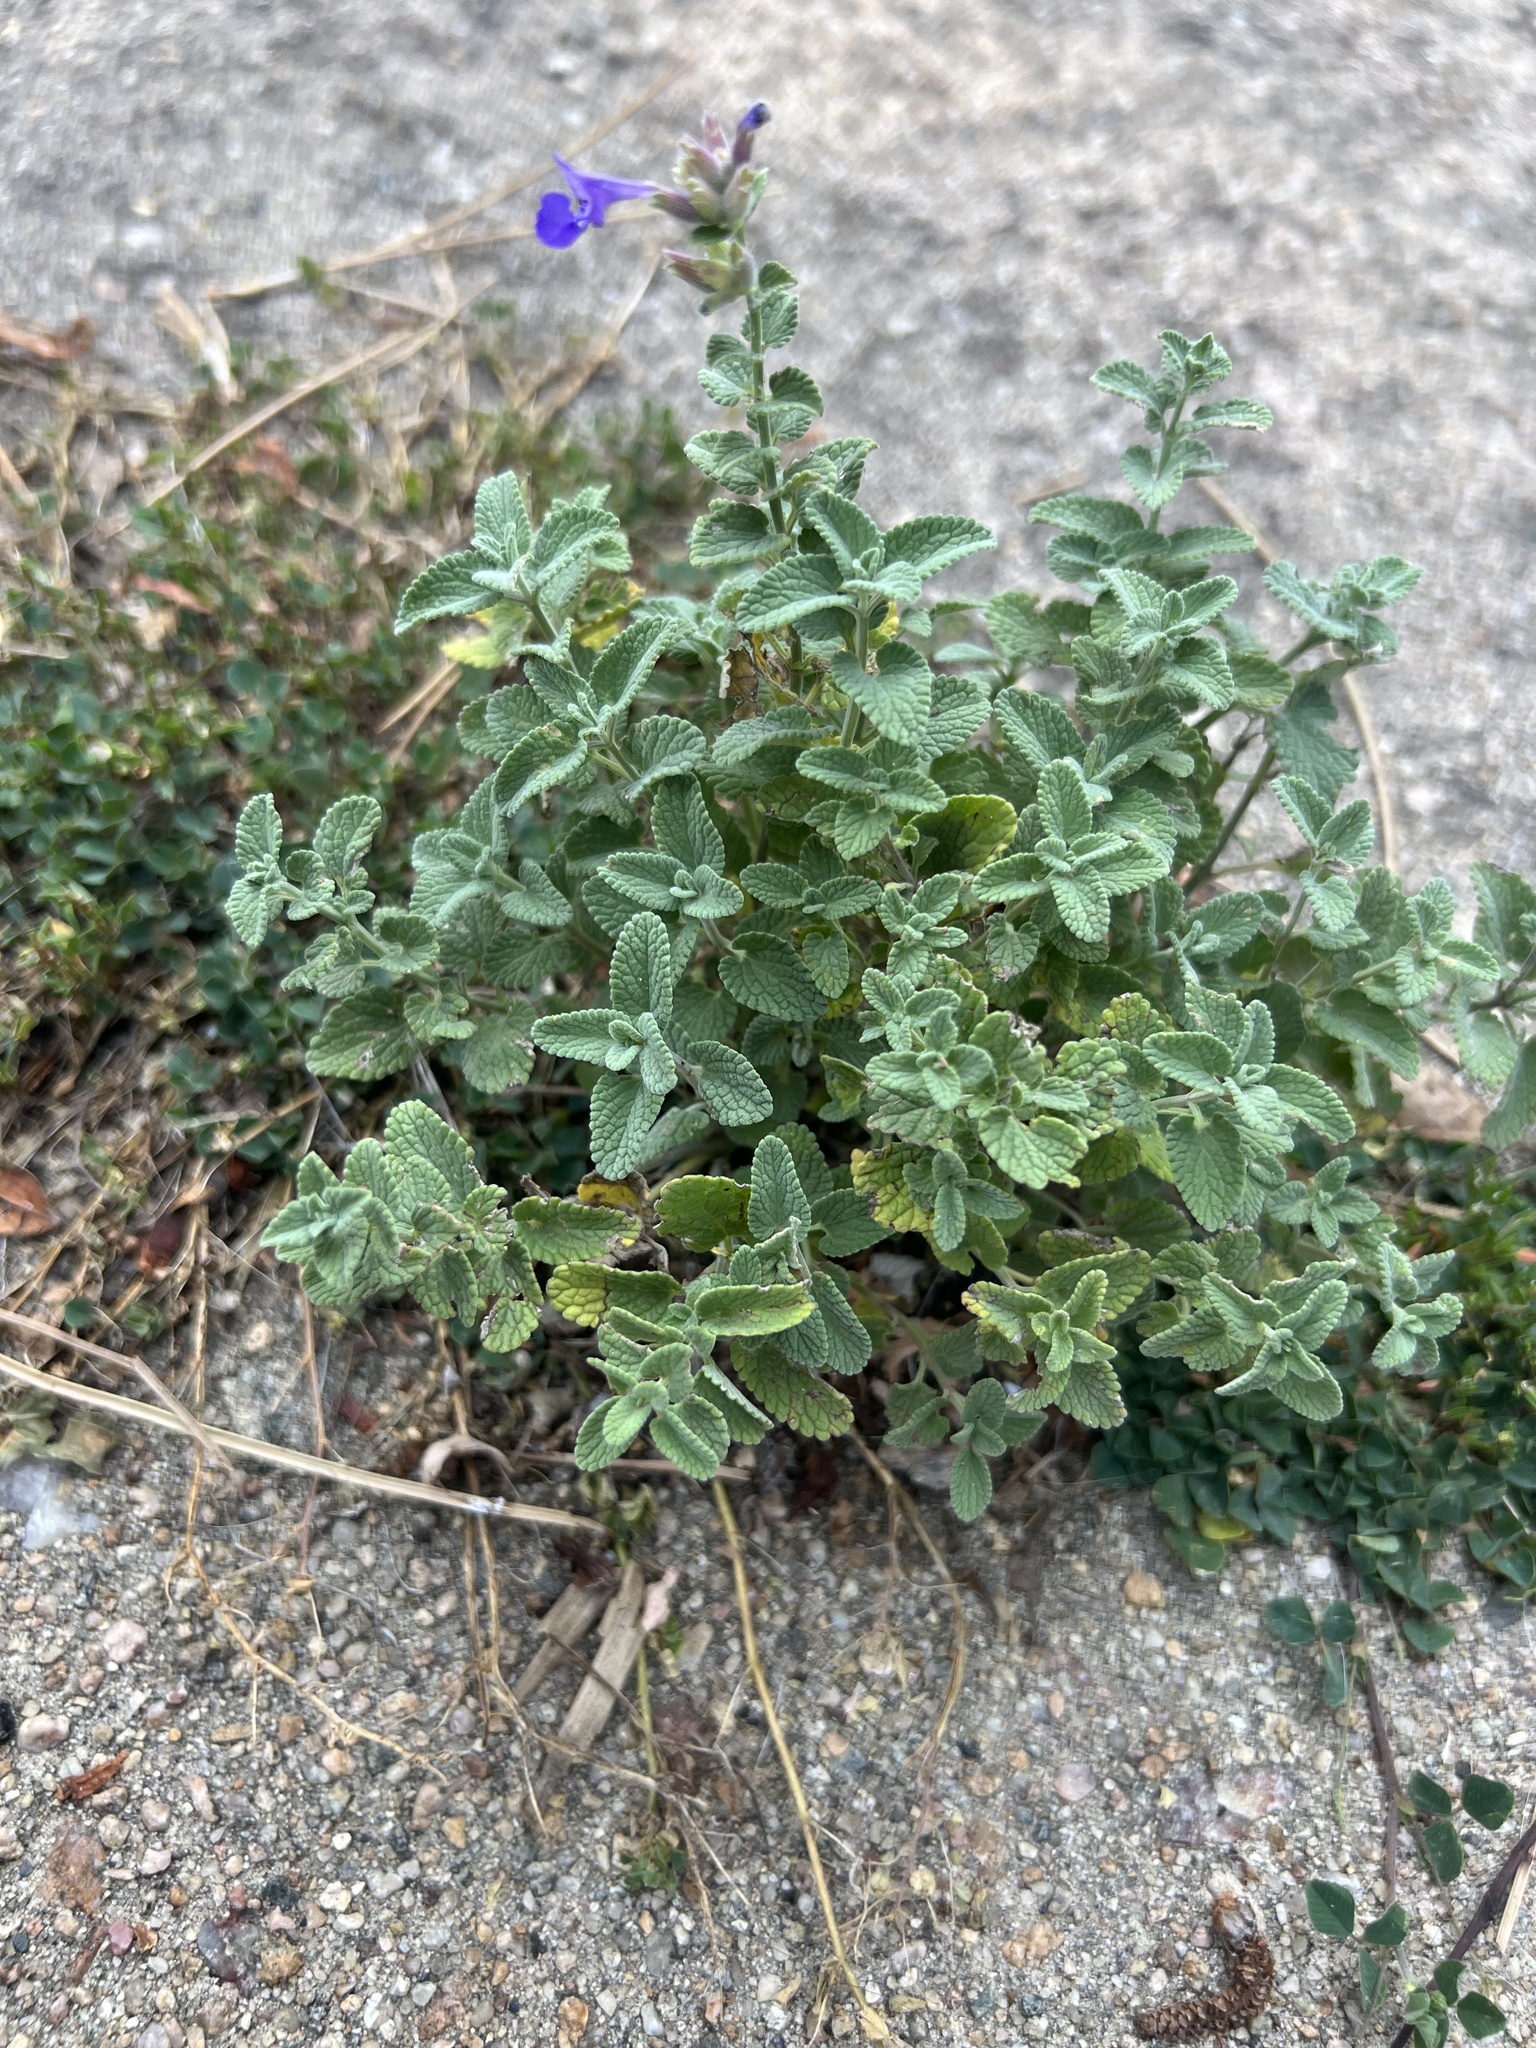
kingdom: Plantae
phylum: Tracheophyta
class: Magnoliopsida
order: Lamiales
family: Lamiaceae
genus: Nepeta
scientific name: Nepeta racemosa
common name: Raceme catnip
